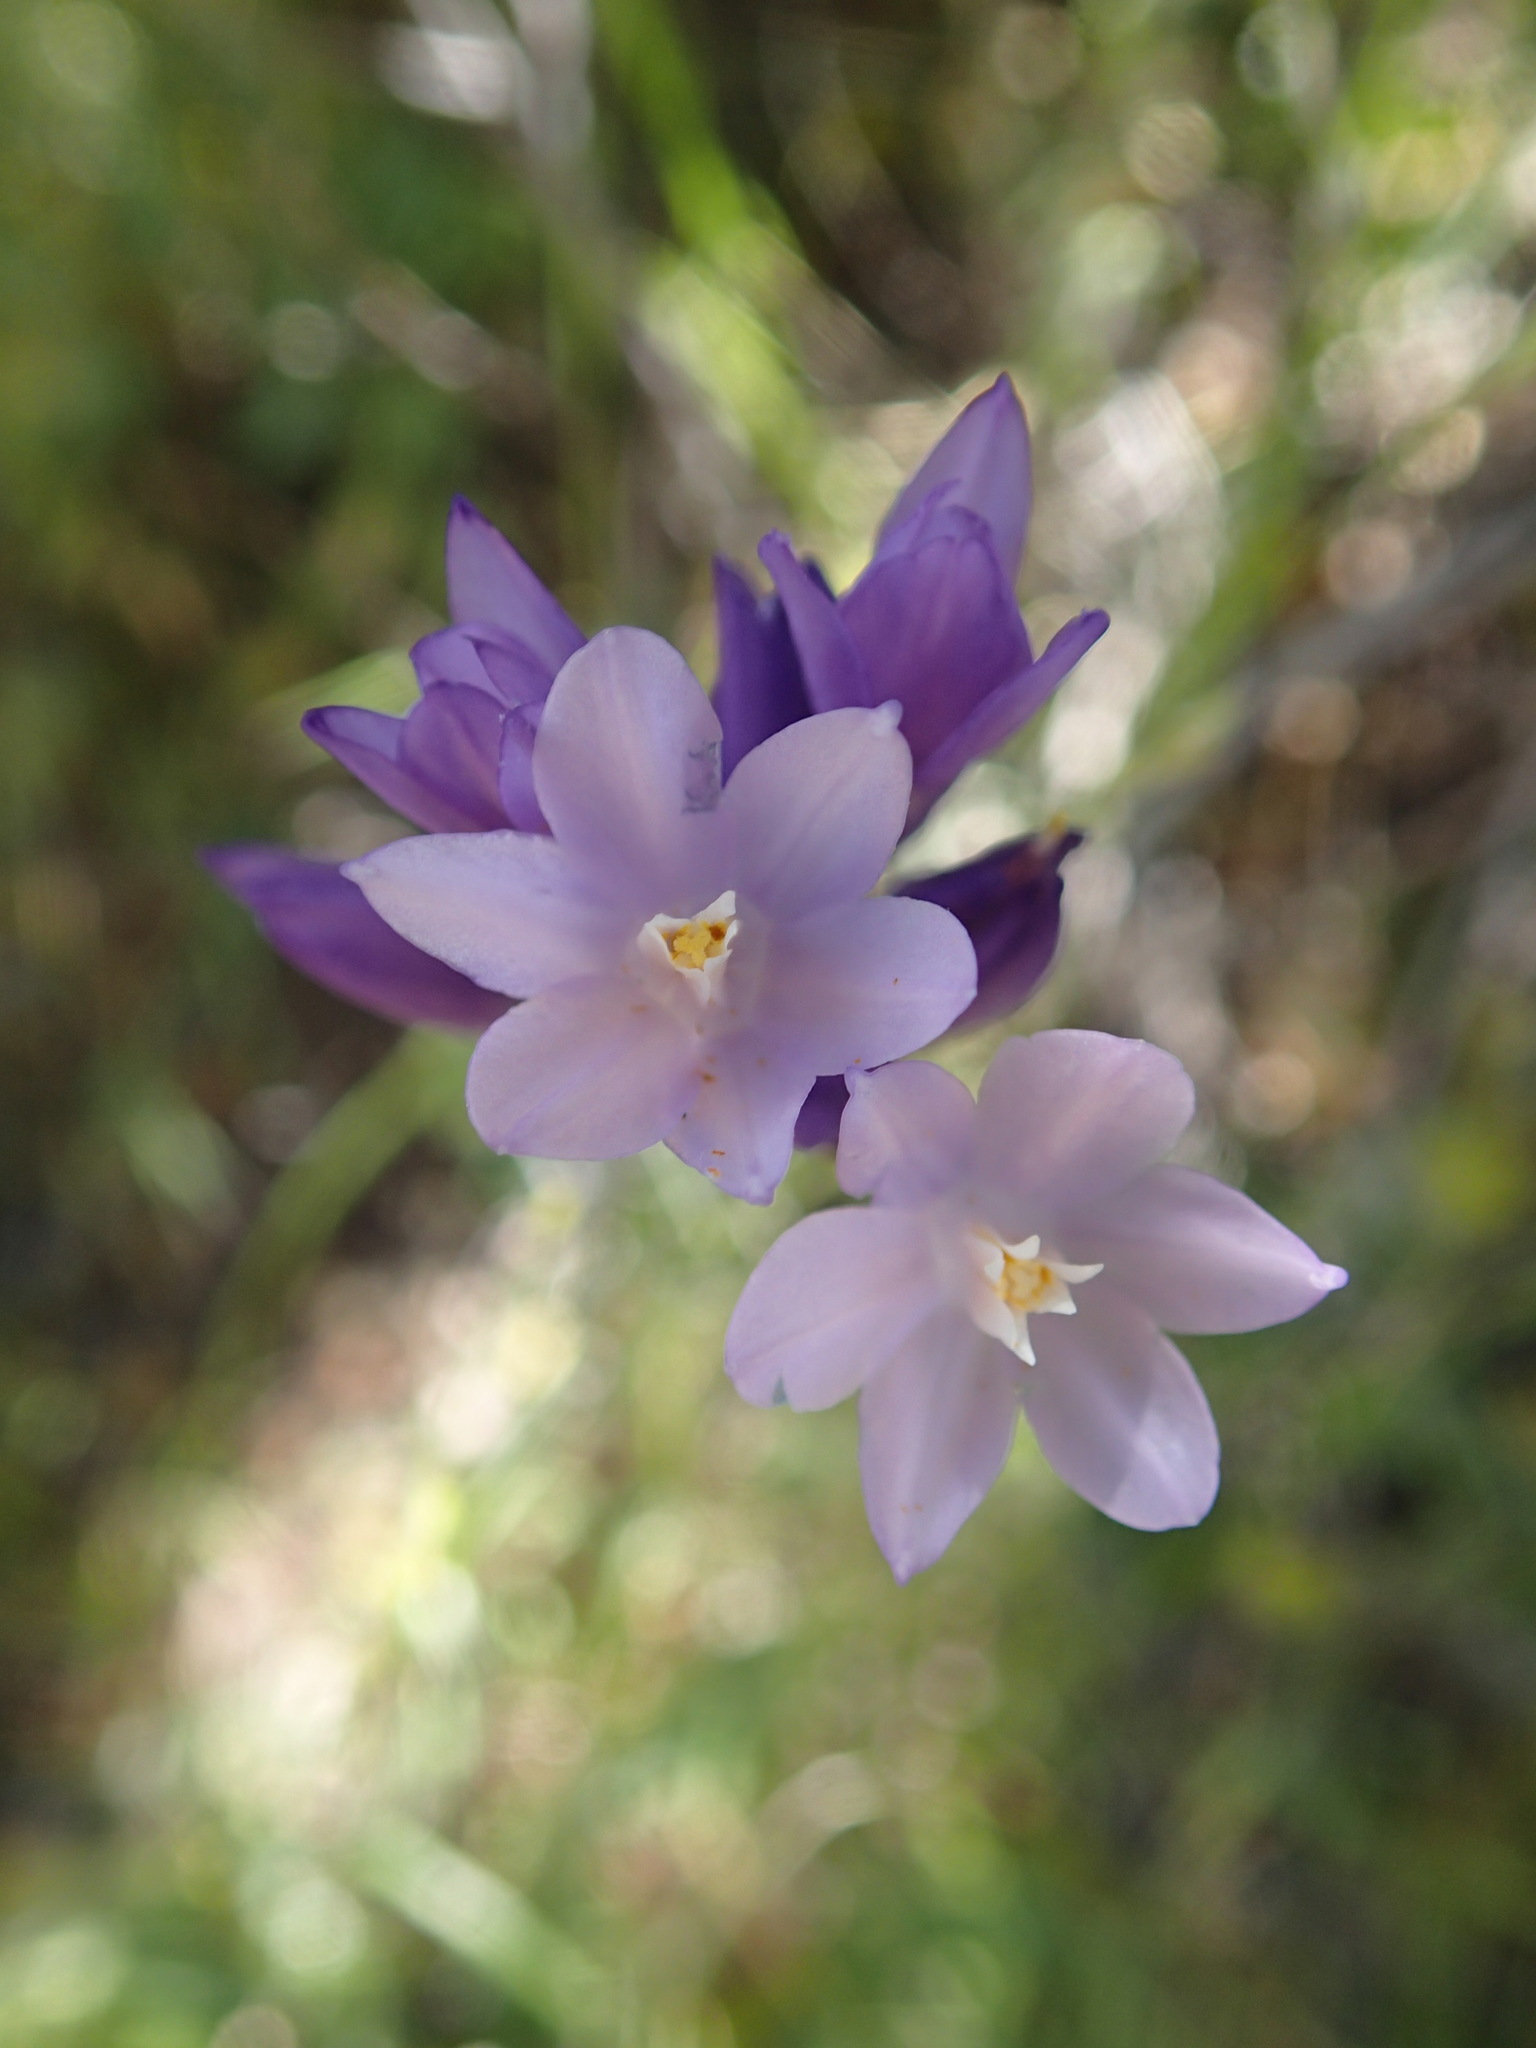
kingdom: Plantae
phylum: Tracheophyta
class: Liliopsida
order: Asparagales
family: Asparagaceae
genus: Dipterostemon
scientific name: Dipterostemon capitatus
